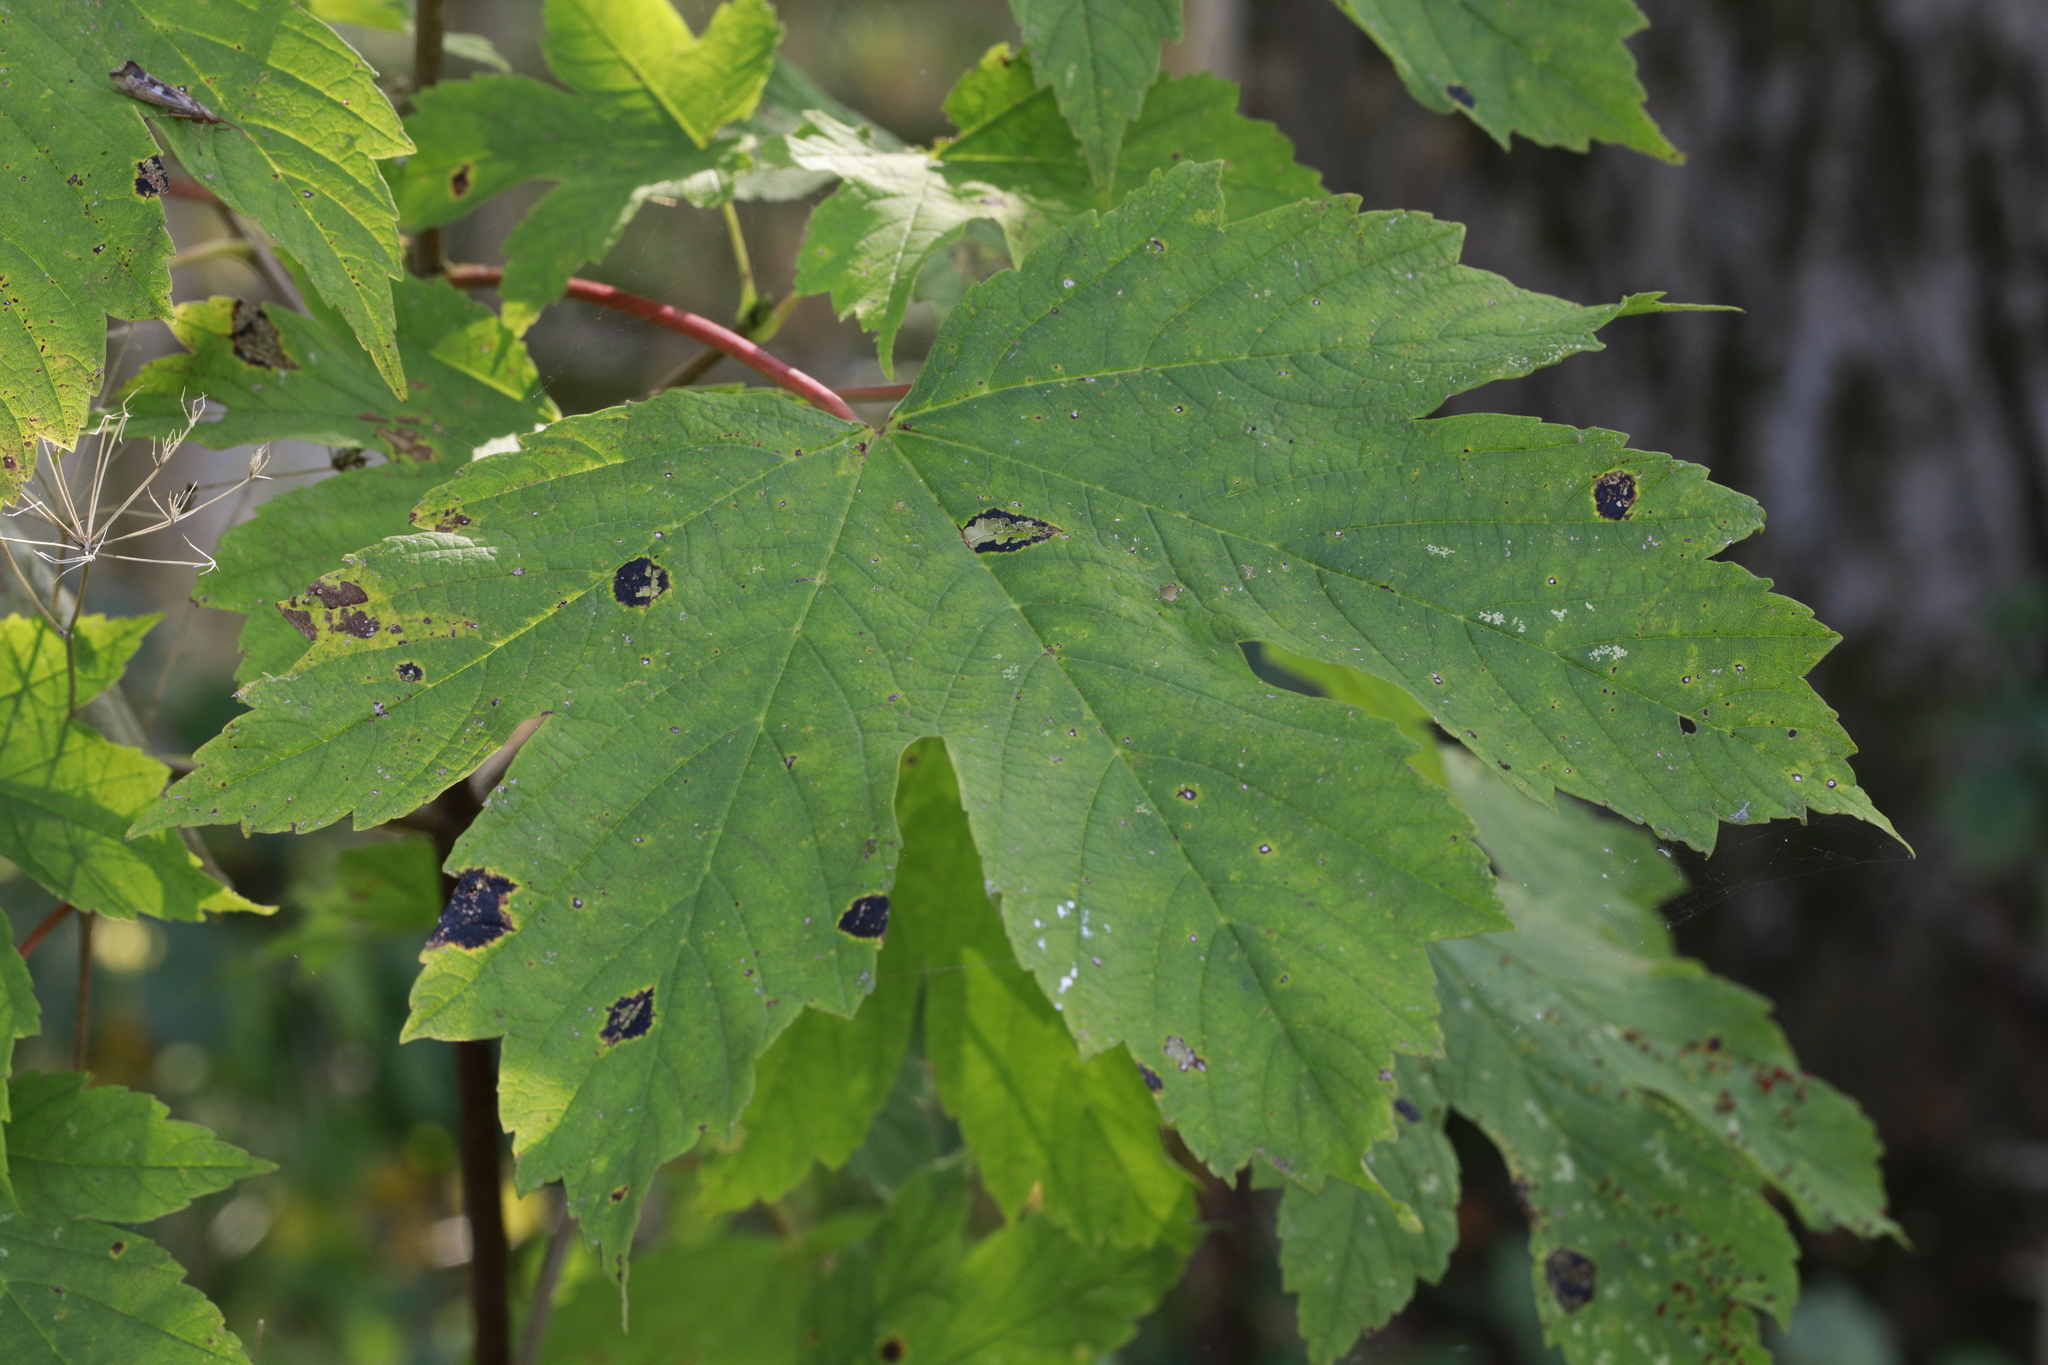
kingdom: Plantae
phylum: Tracheophyta
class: Magnoliopsida
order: Sapindales
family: Sapindaceae
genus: Acer
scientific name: Acer pseudoplatanus
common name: Sycamore
